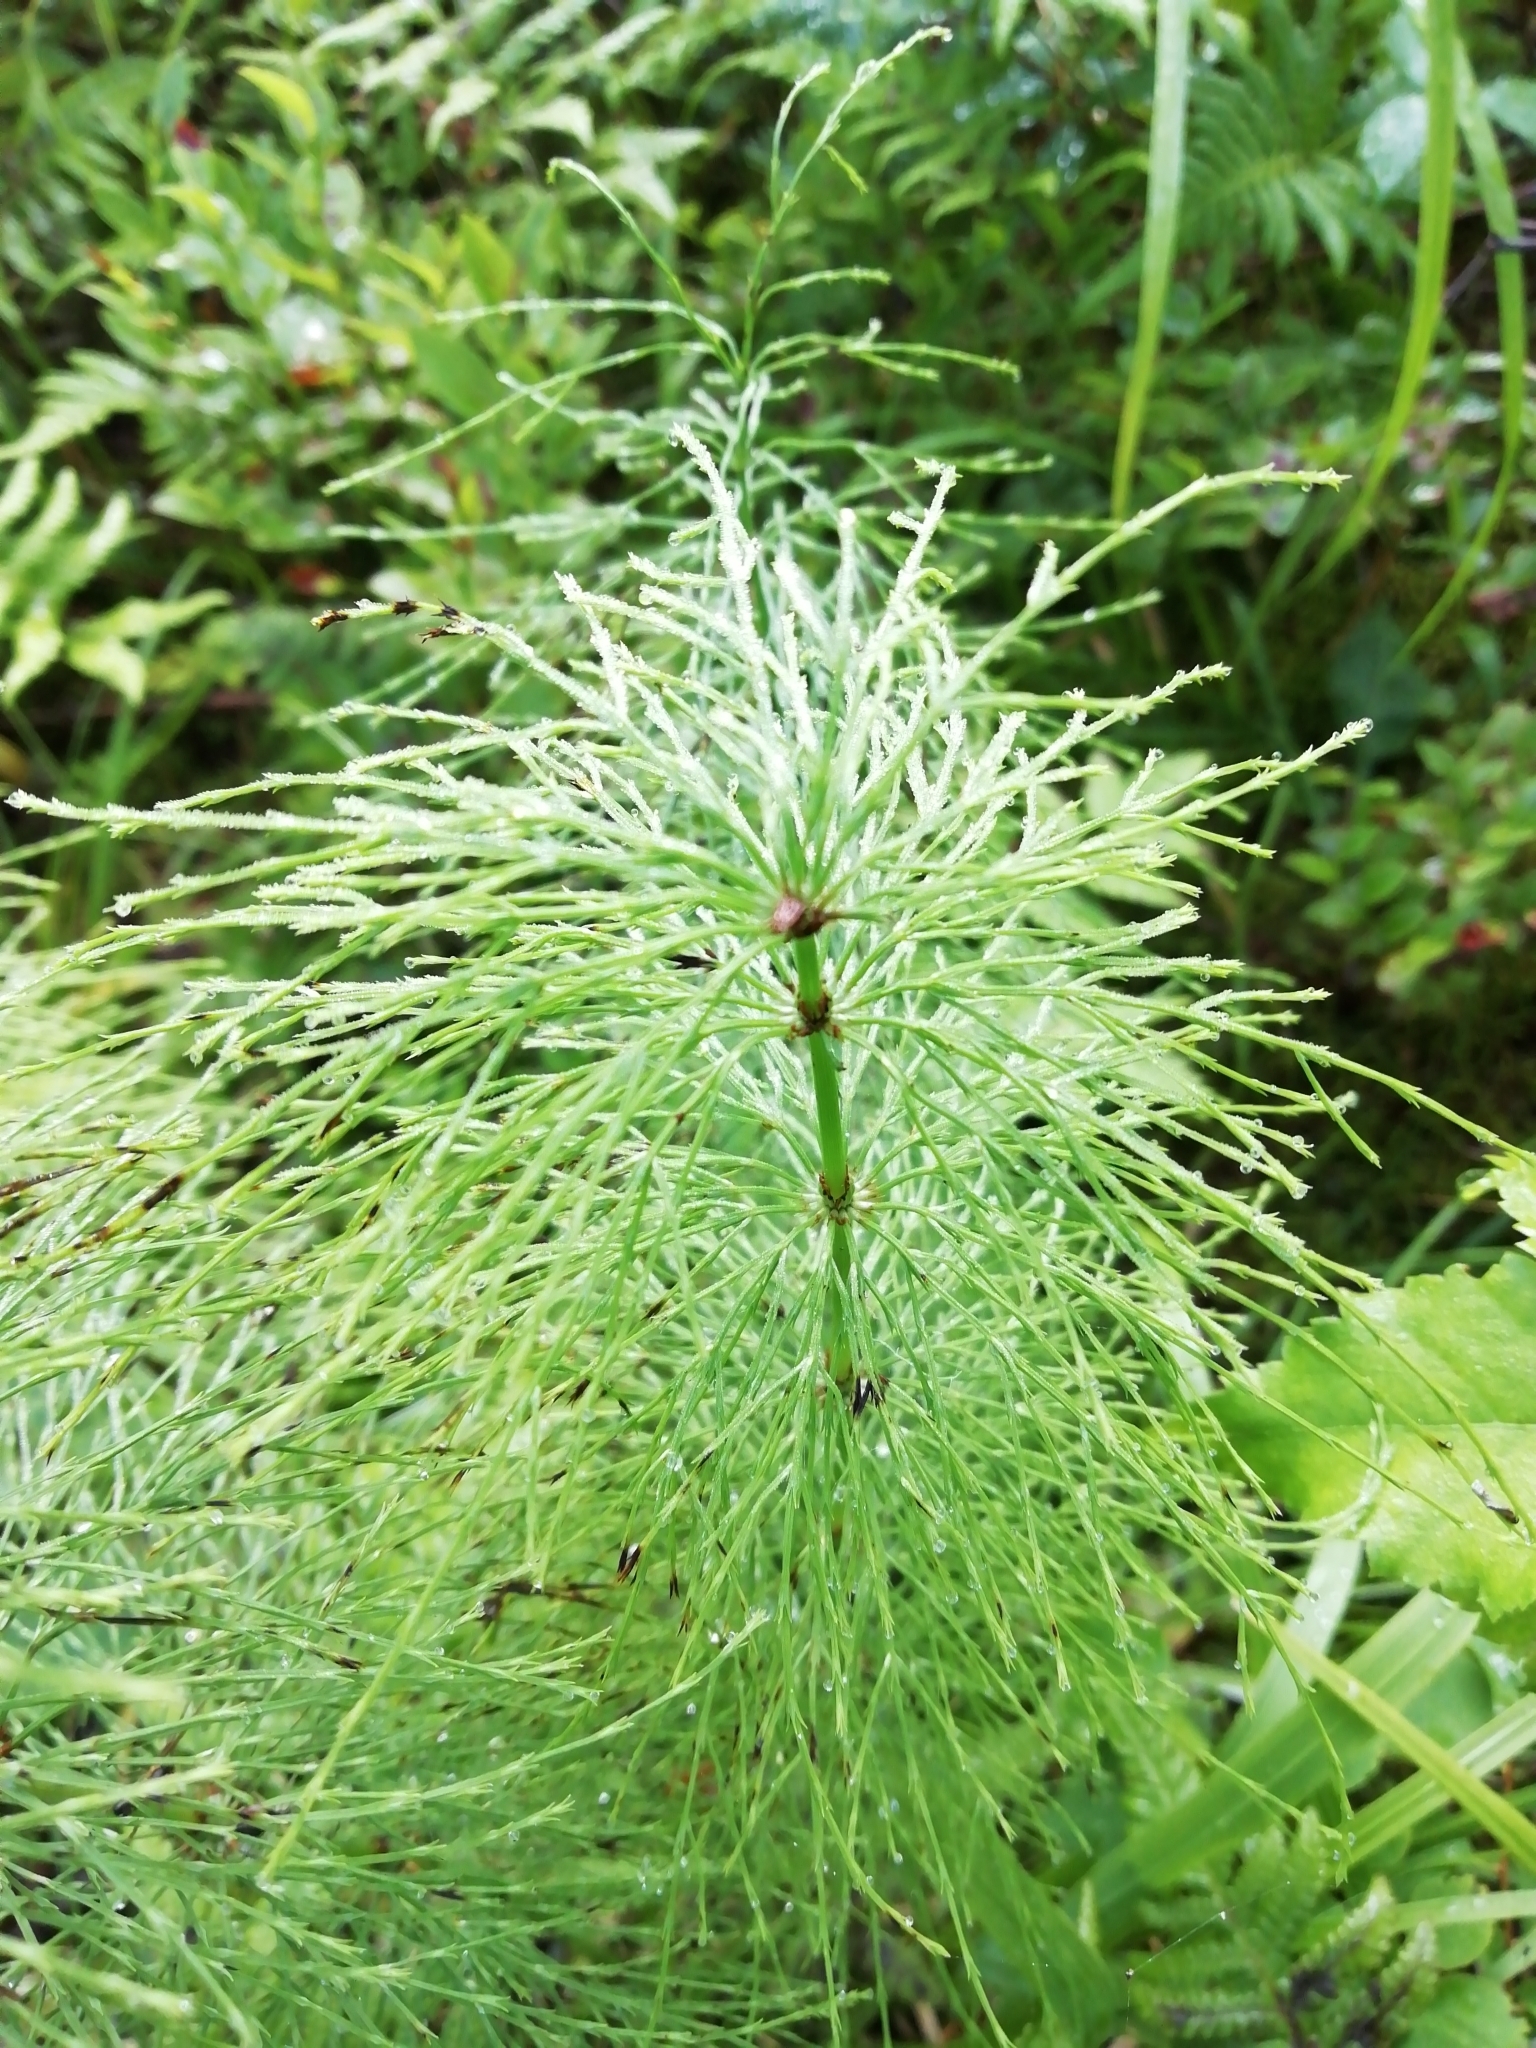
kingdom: Plantae
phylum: Tracheophyta
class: Polypodiopsida
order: Equisetales
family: Equisetaceae
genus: Equisetum
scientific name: Equisetum sylvaticum
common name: Wood horsetail
